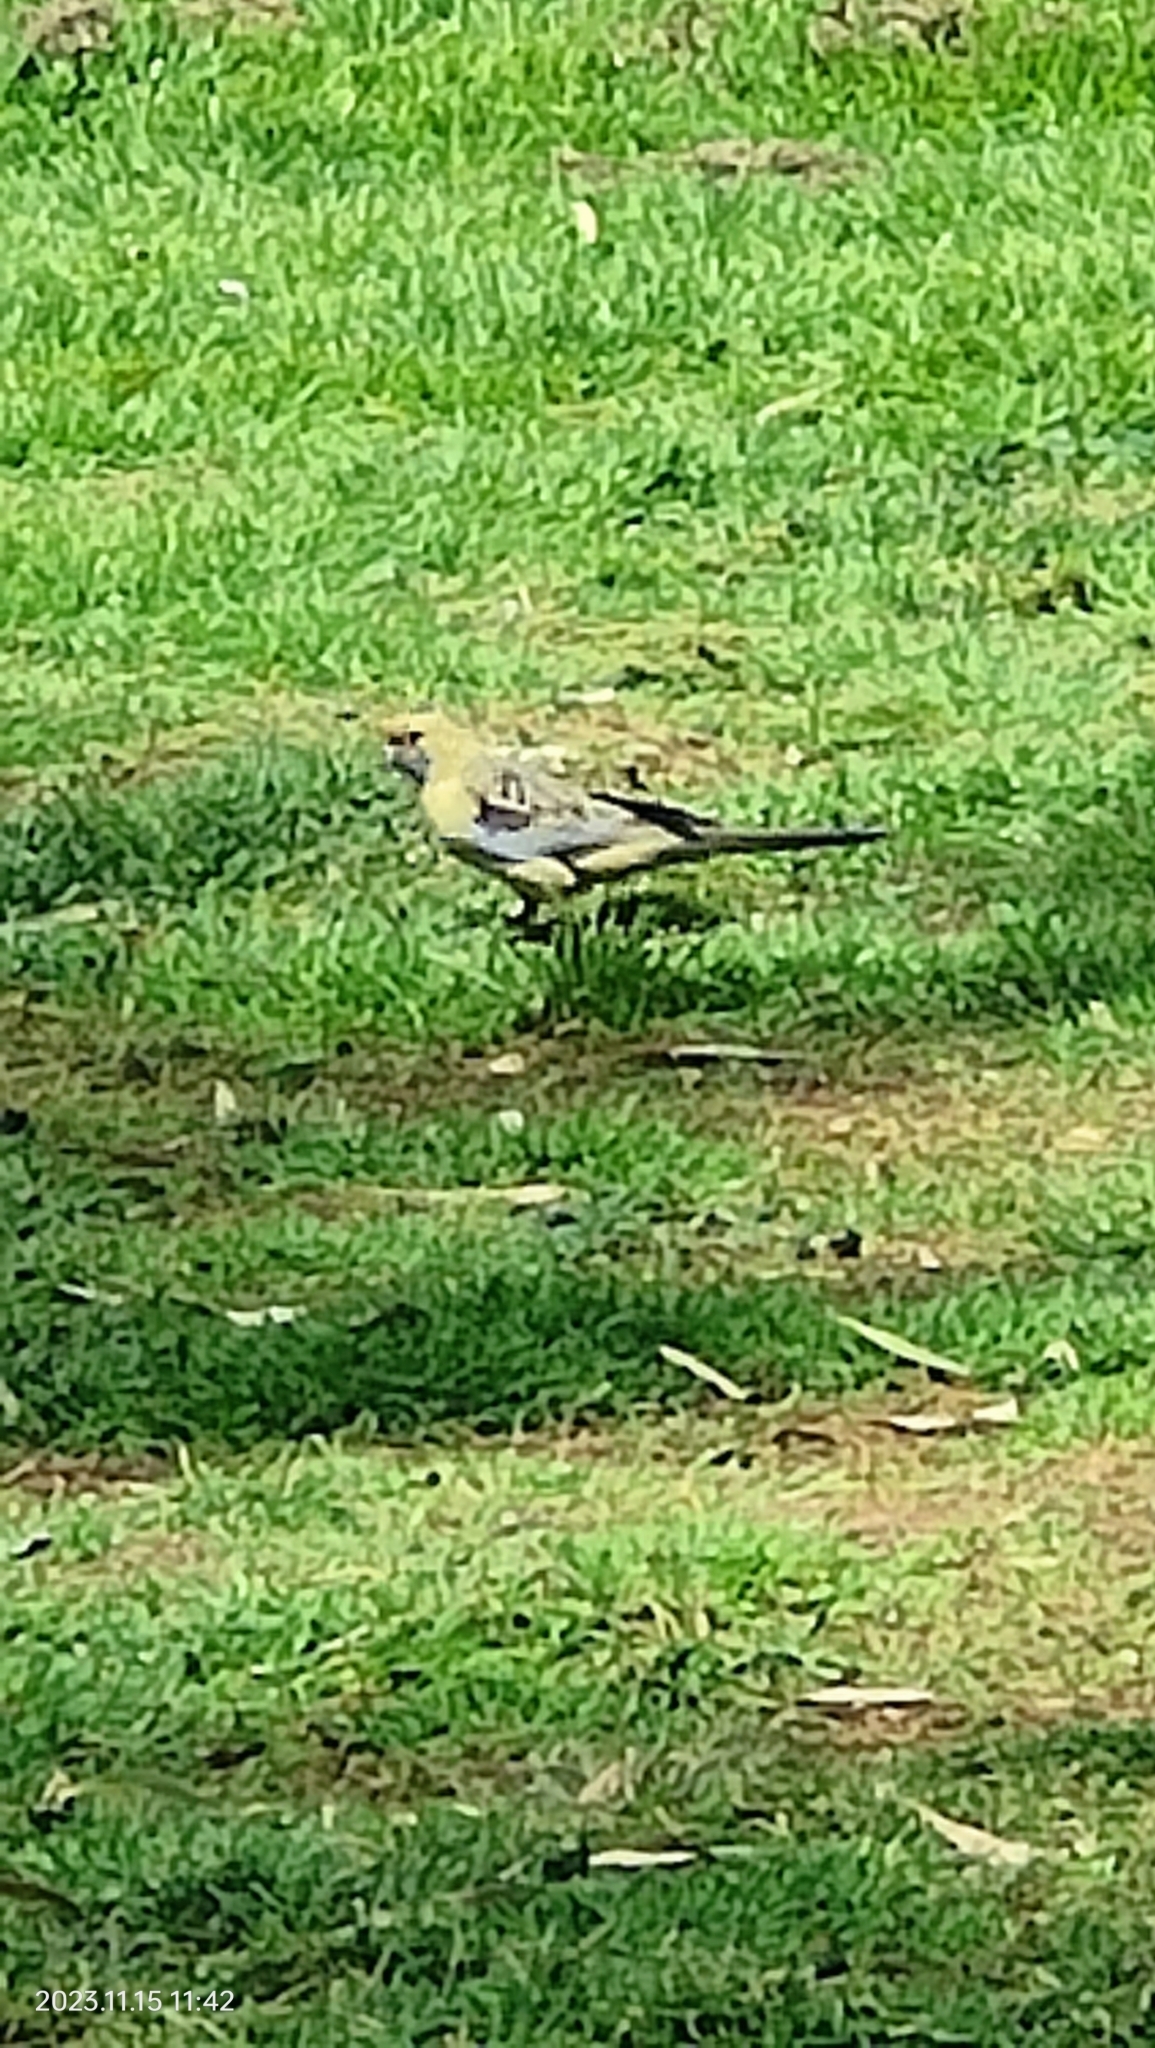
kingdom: Animalia
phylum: Chordata
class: Aves
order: Psittaciformes
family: Psittacidae
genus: Platycercus
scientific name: Platycercus elegans
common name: Crimson rosella
